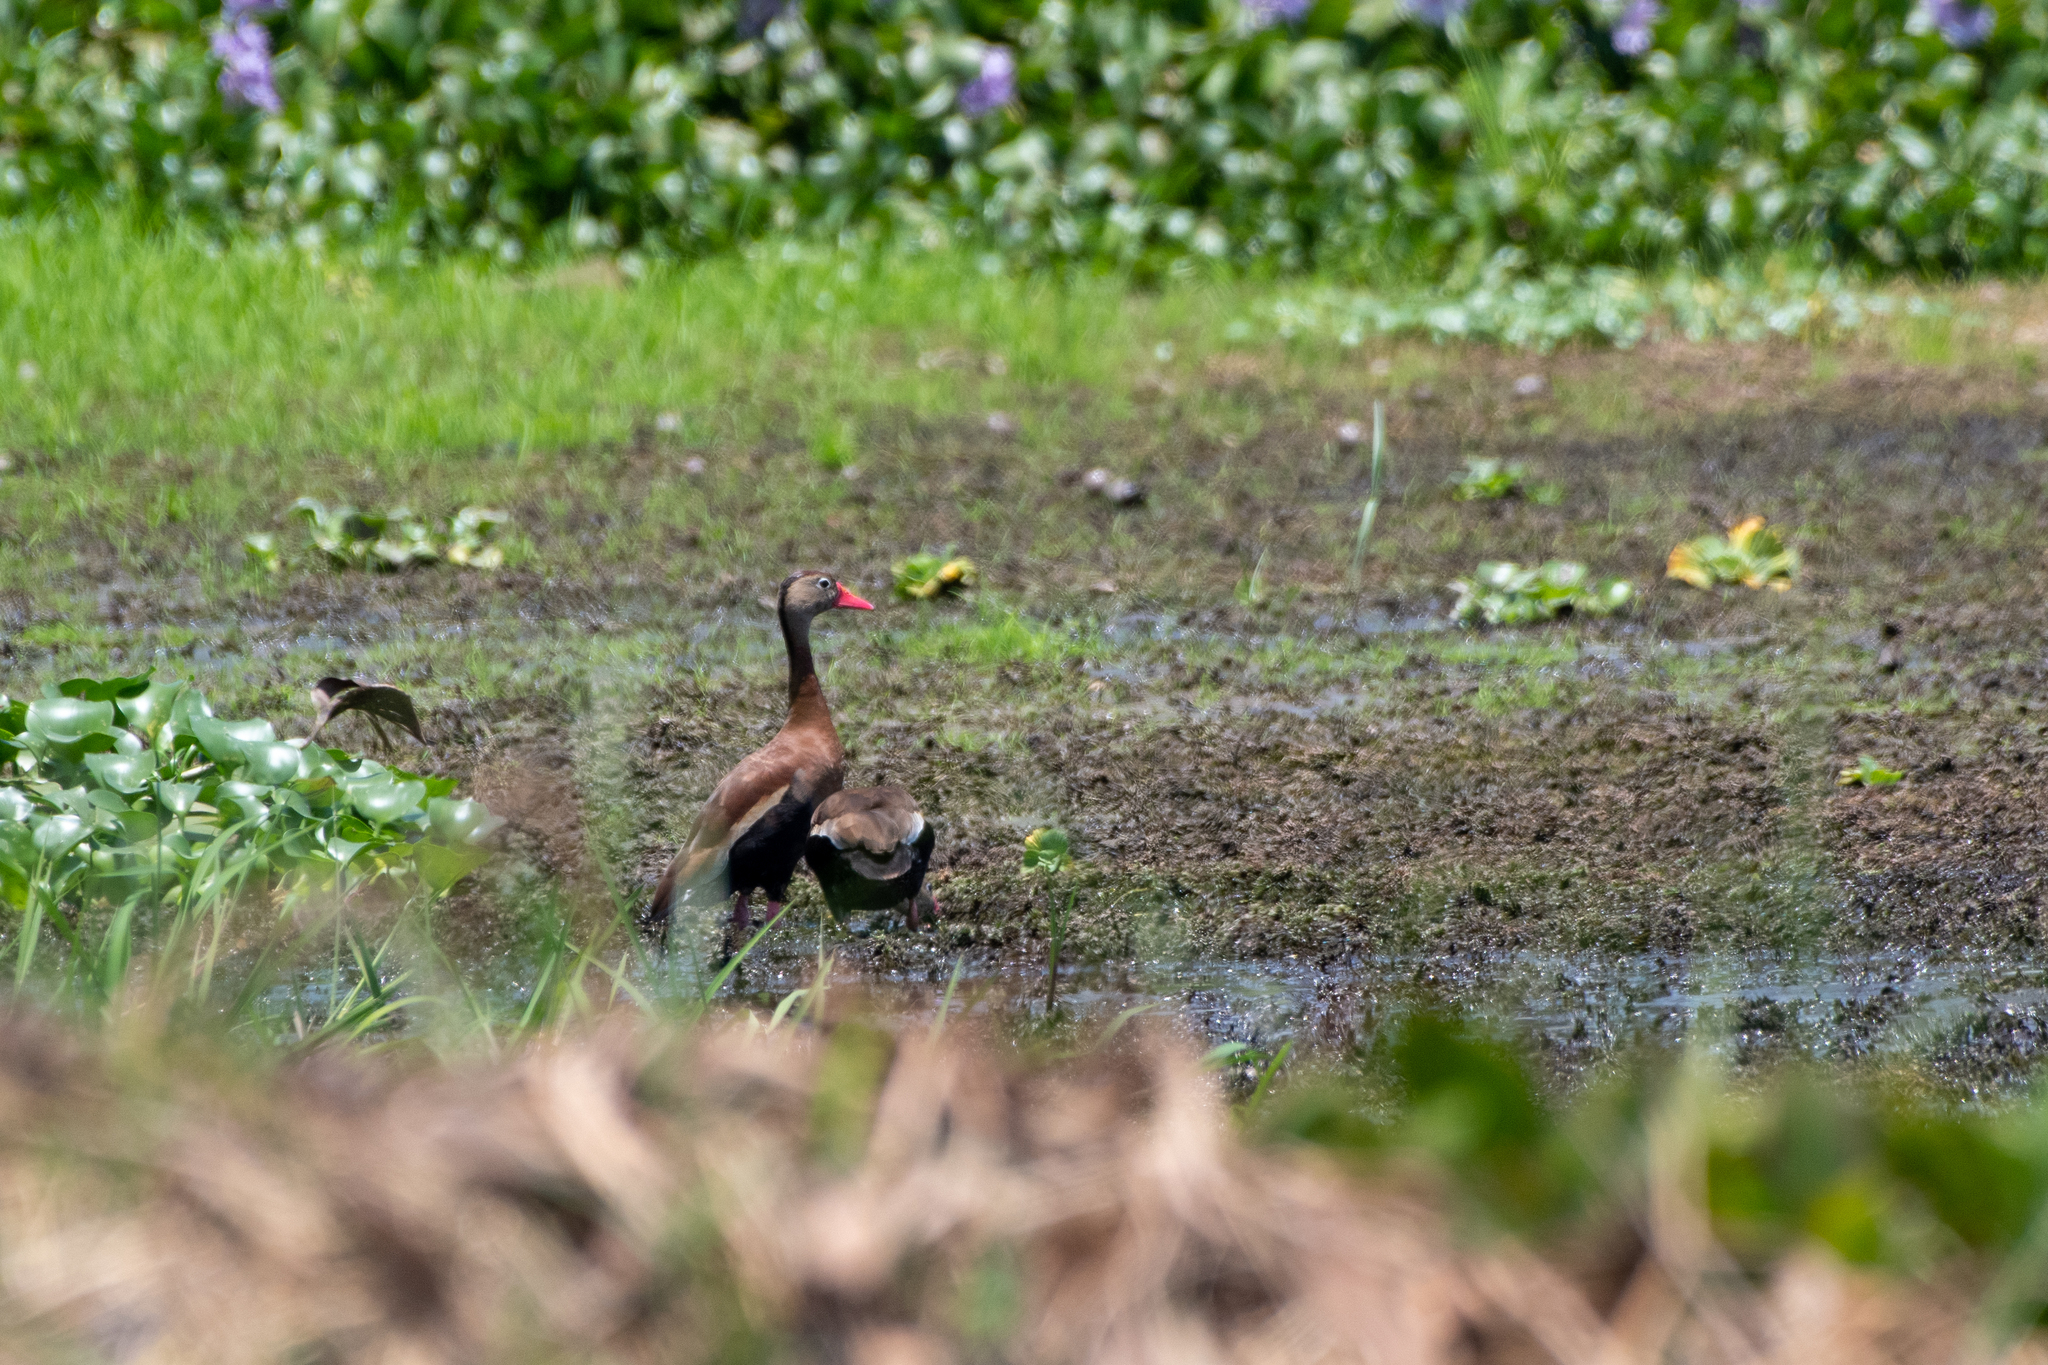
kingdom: Animalia
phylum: Chordata
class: Aves
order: Anseriformes
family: Anatidae
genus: Dendrocygna
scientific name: Dendrocygna autumnalis
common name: Black-bellied whistling duck
